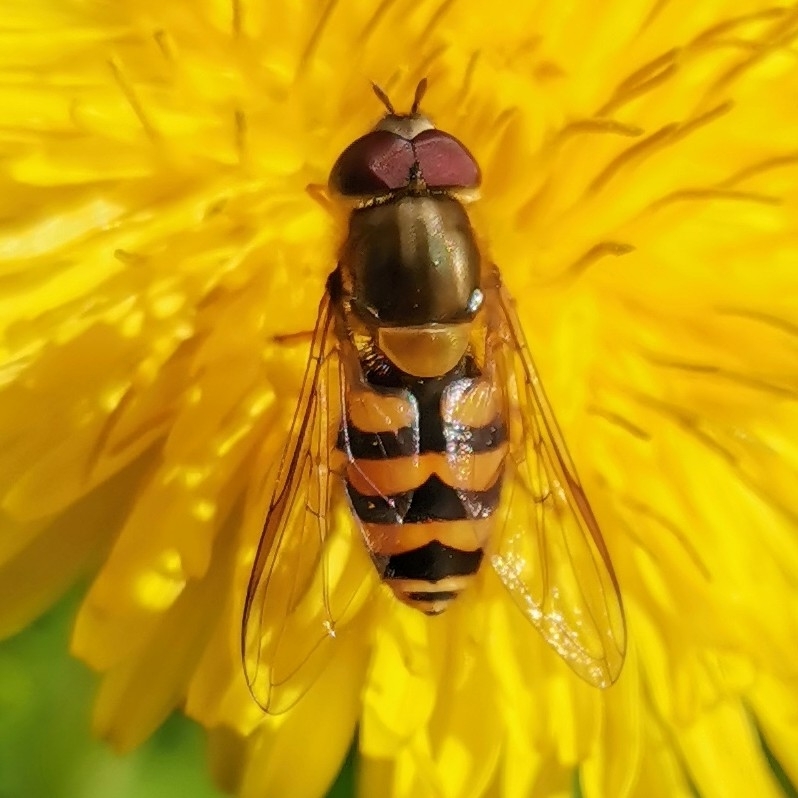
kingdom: Animalia
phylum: Arthropoda
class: Insecta
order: Diptera
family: Syrphidae
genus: Syrphus
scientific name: Syrphus
